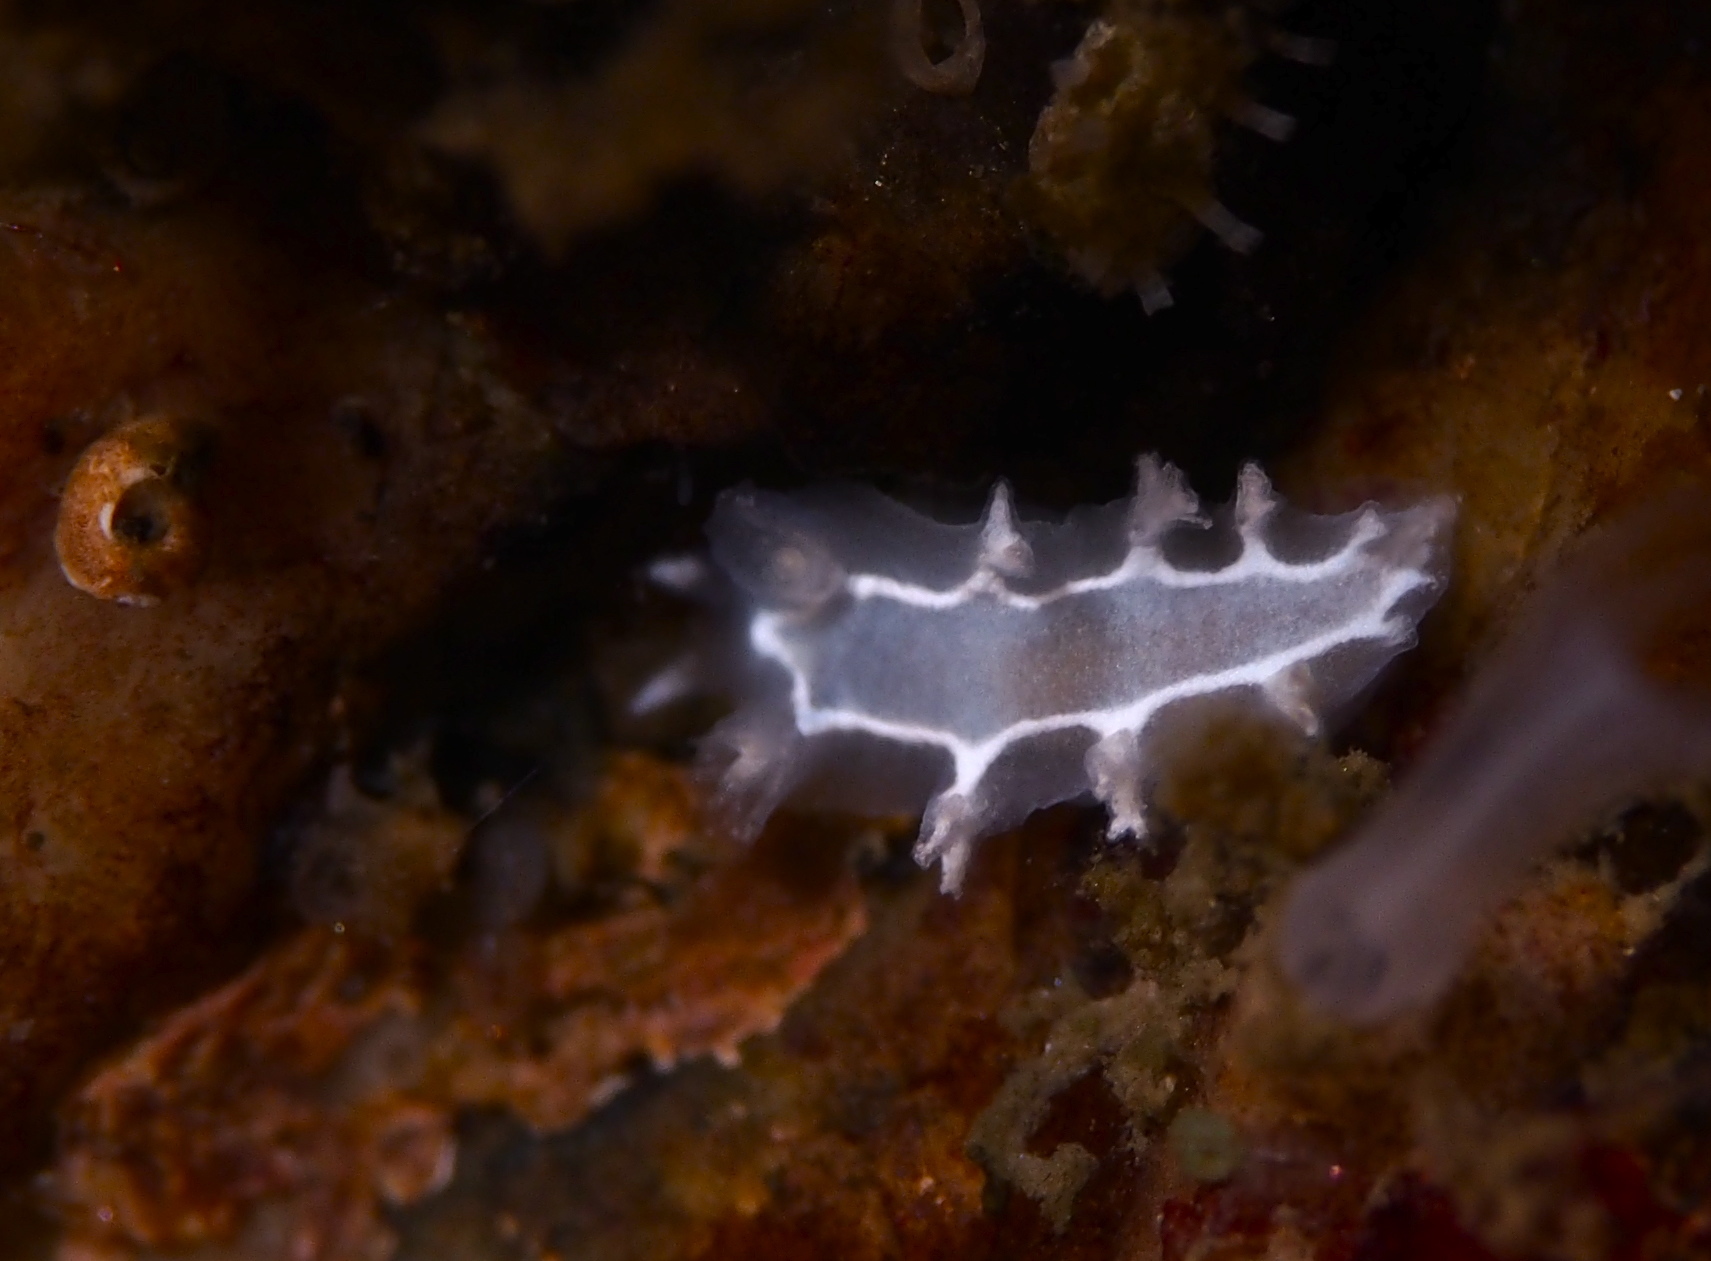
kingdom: Animalia
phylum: Mollusca
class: Gastropoda
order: Nudibranchia
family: Tritoniidae
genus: Duvaucelia
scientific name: Duvaucelia lineata
